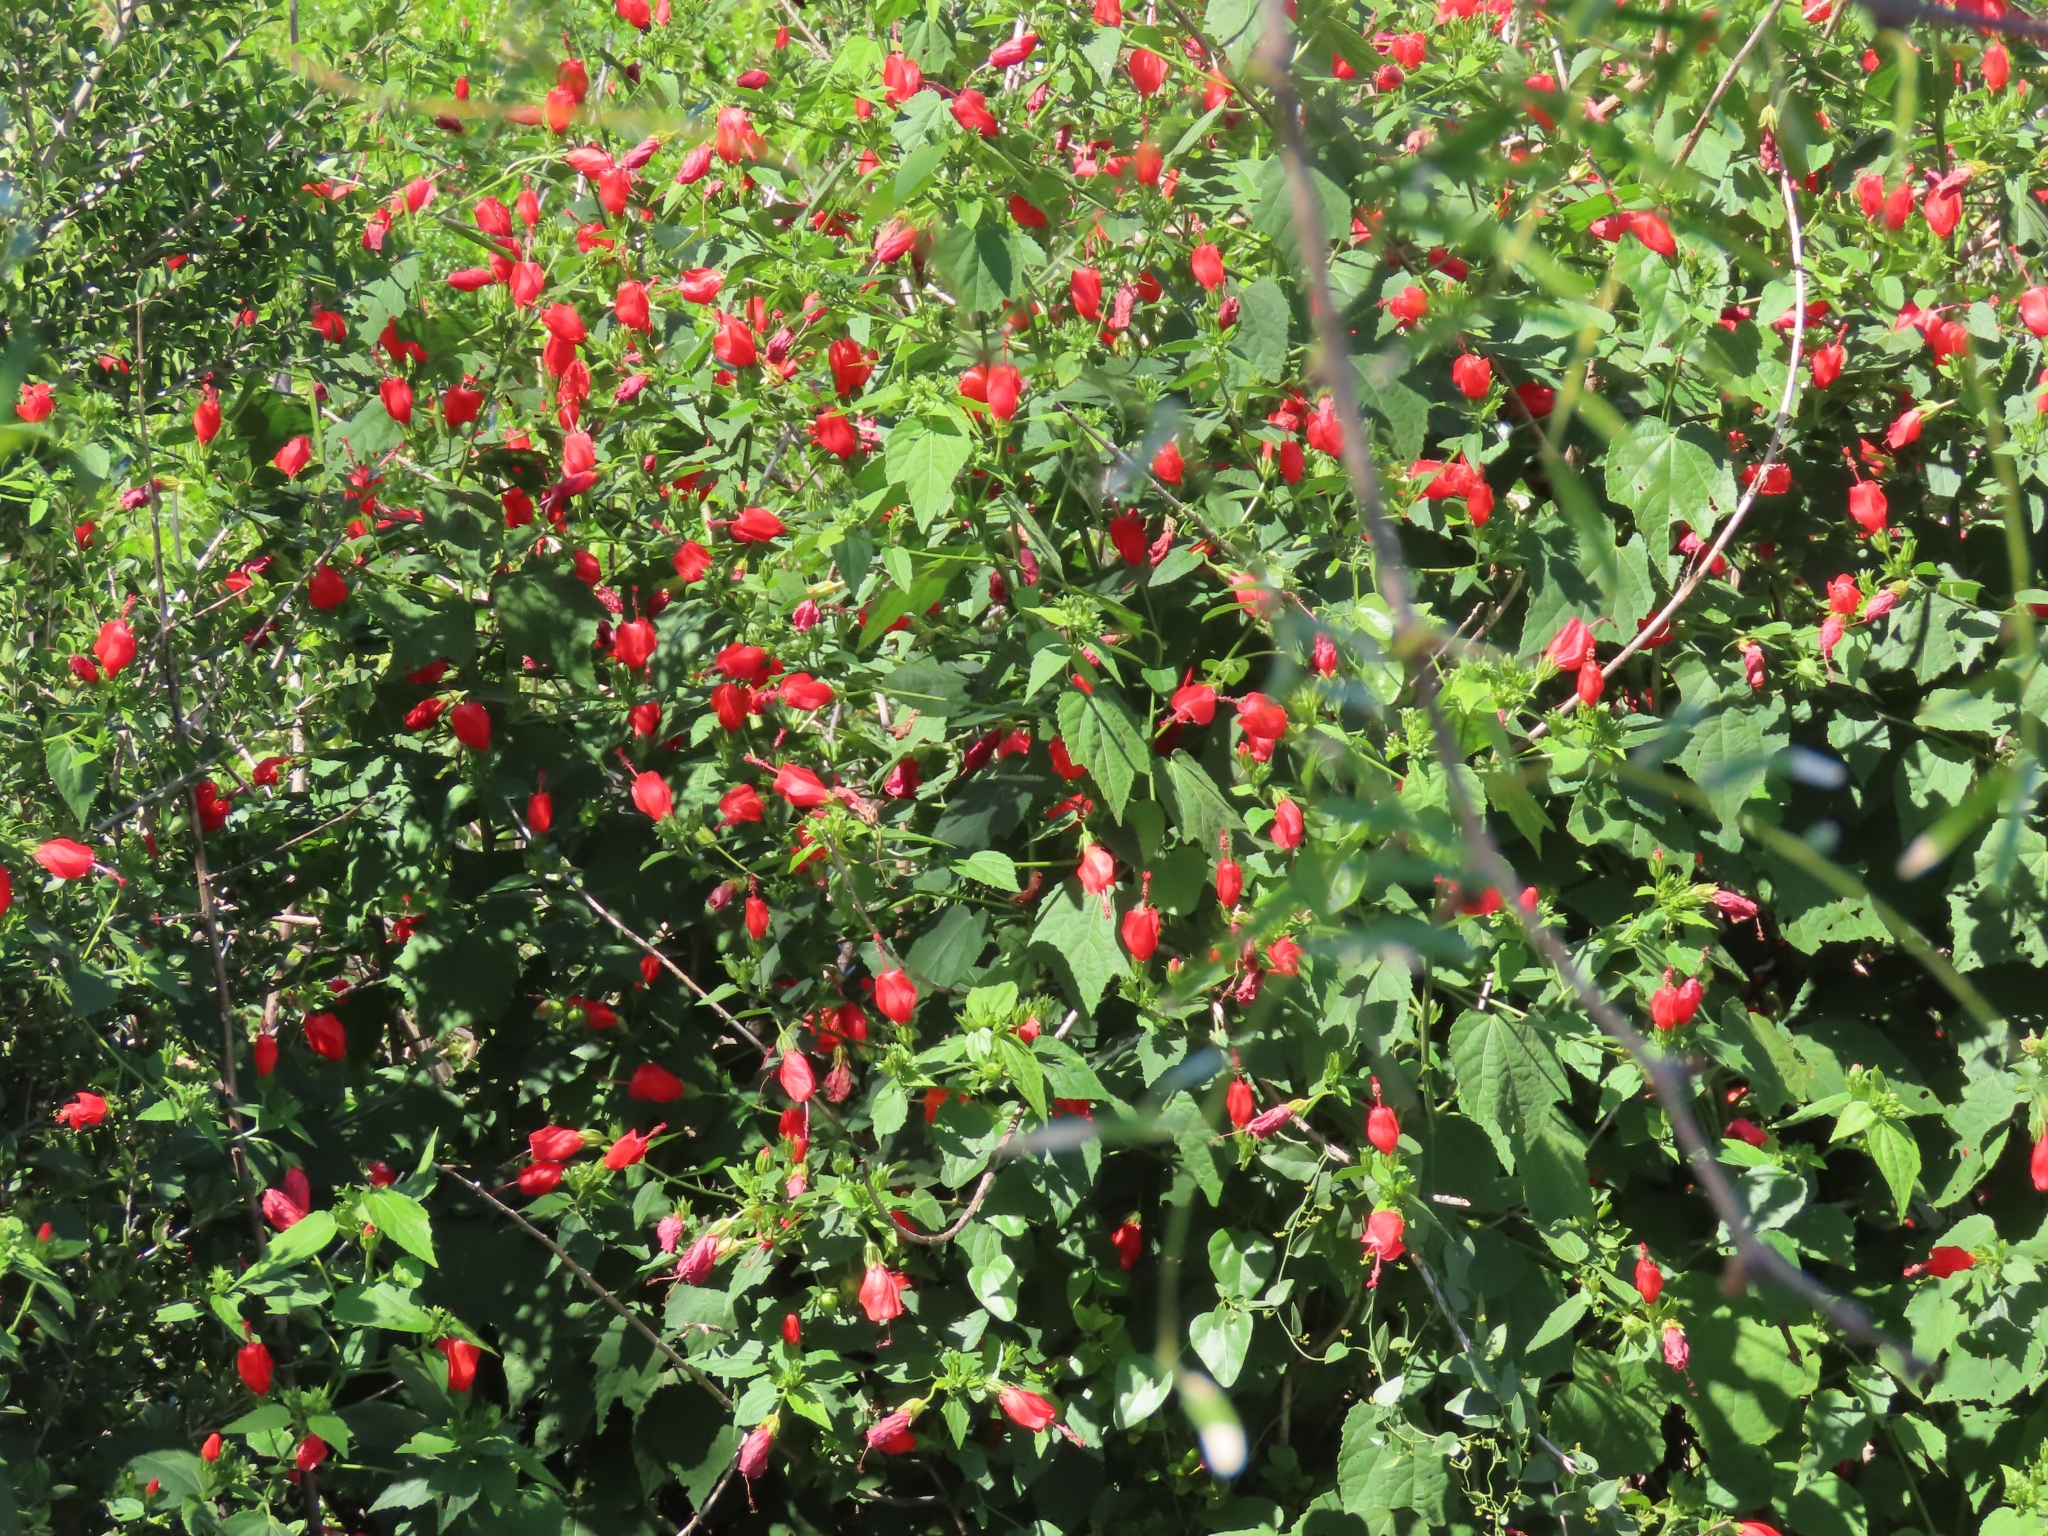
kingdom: Plantae
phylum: Tracheophyta
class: Magnoliopsida
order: Malvales
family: Malvaceae
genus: Malvaviscus
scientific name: Malvaviscus arboreus
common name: Wax mallow
